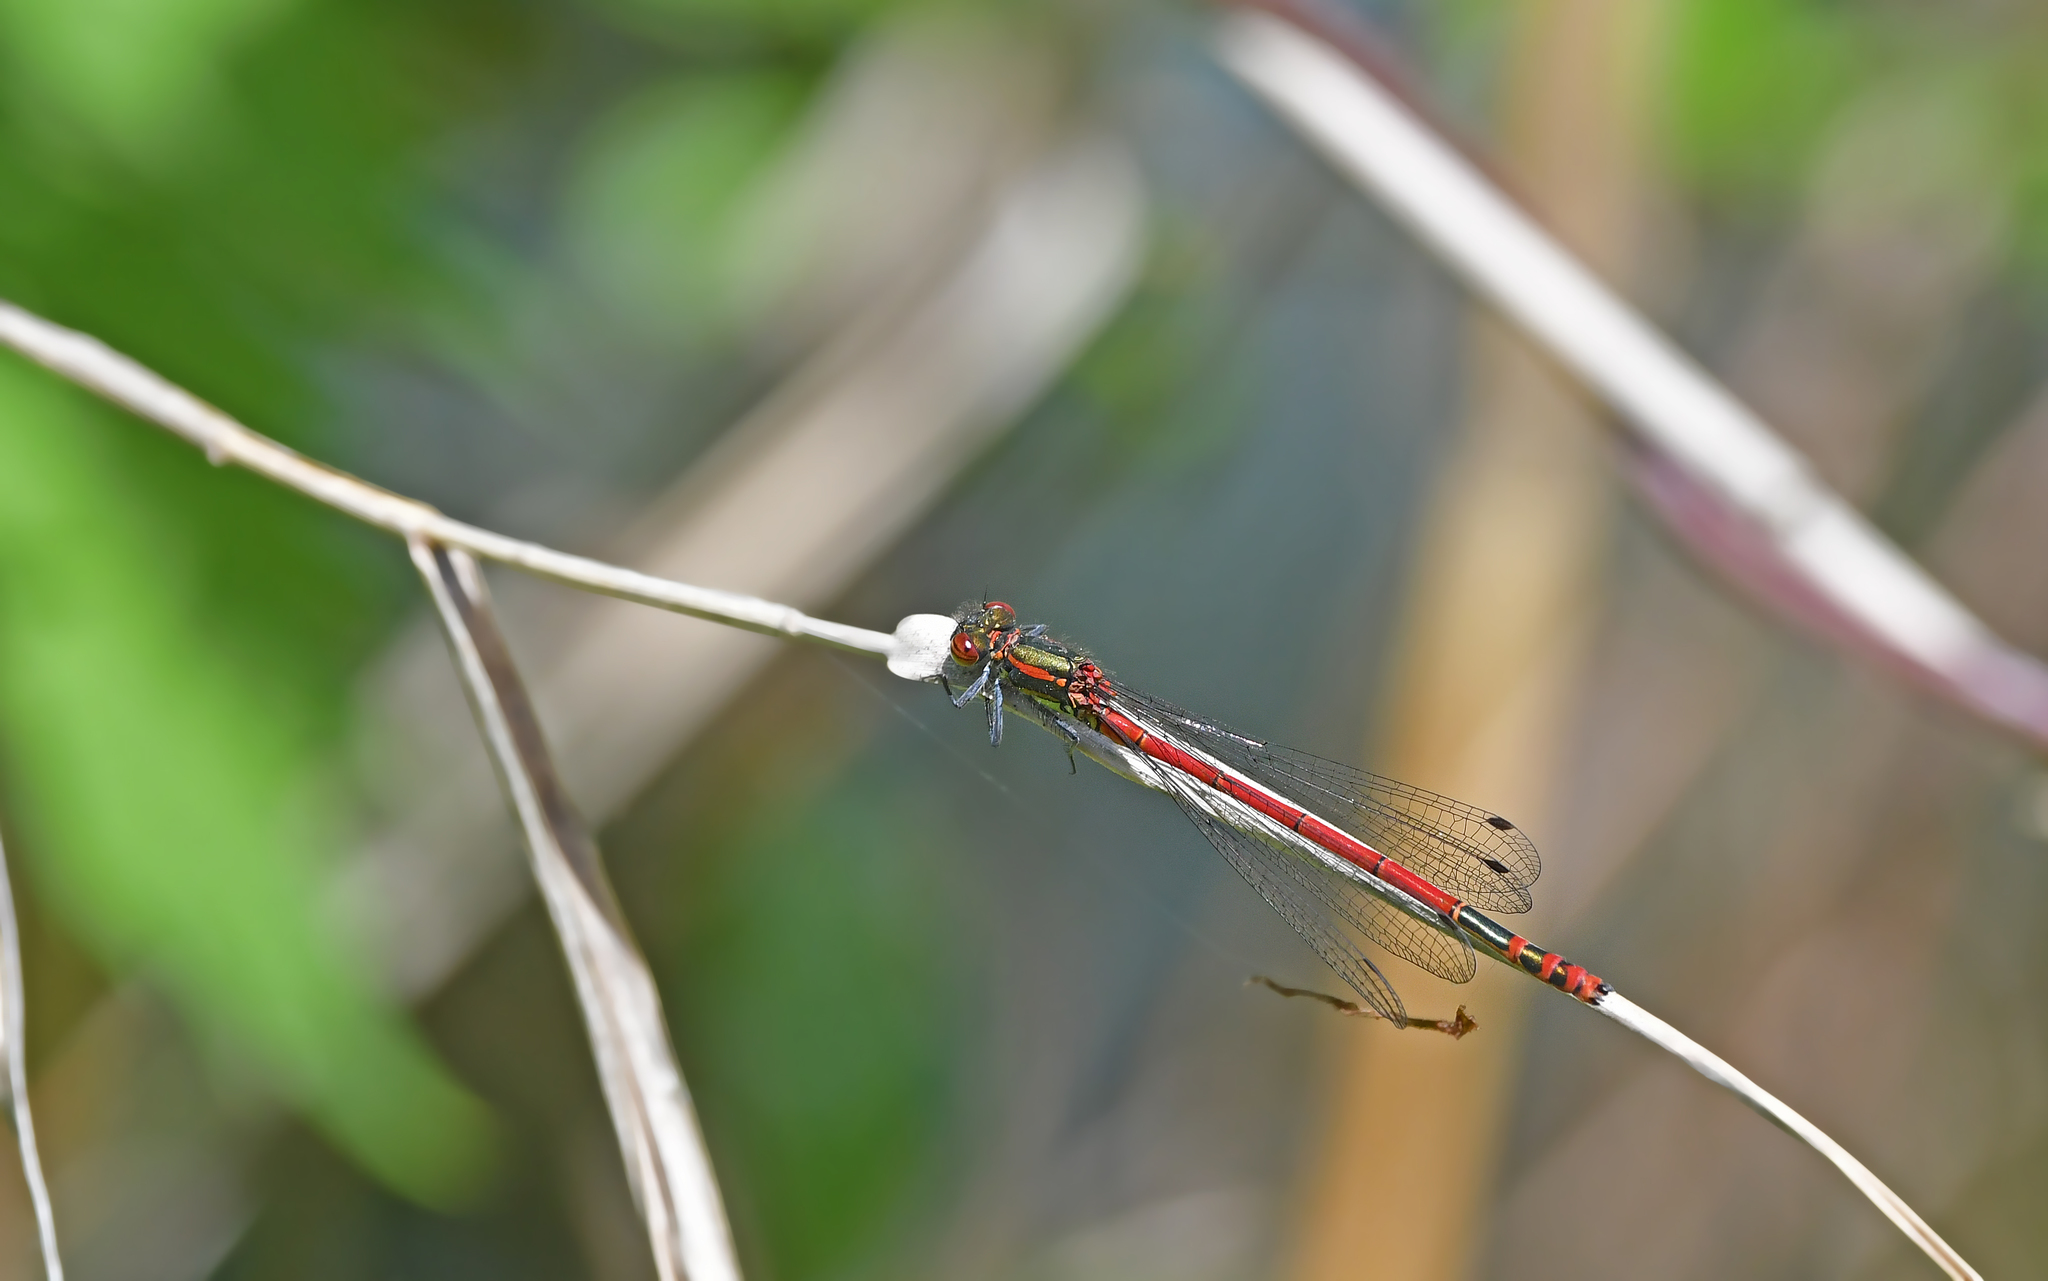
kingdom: Animalia
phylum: Arthropoda
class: Insecta
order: Odonata
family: Coenagrionidae
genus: Pyrrhosoma
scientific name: Pyrrhosoma nymphula
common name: Large red damsel
